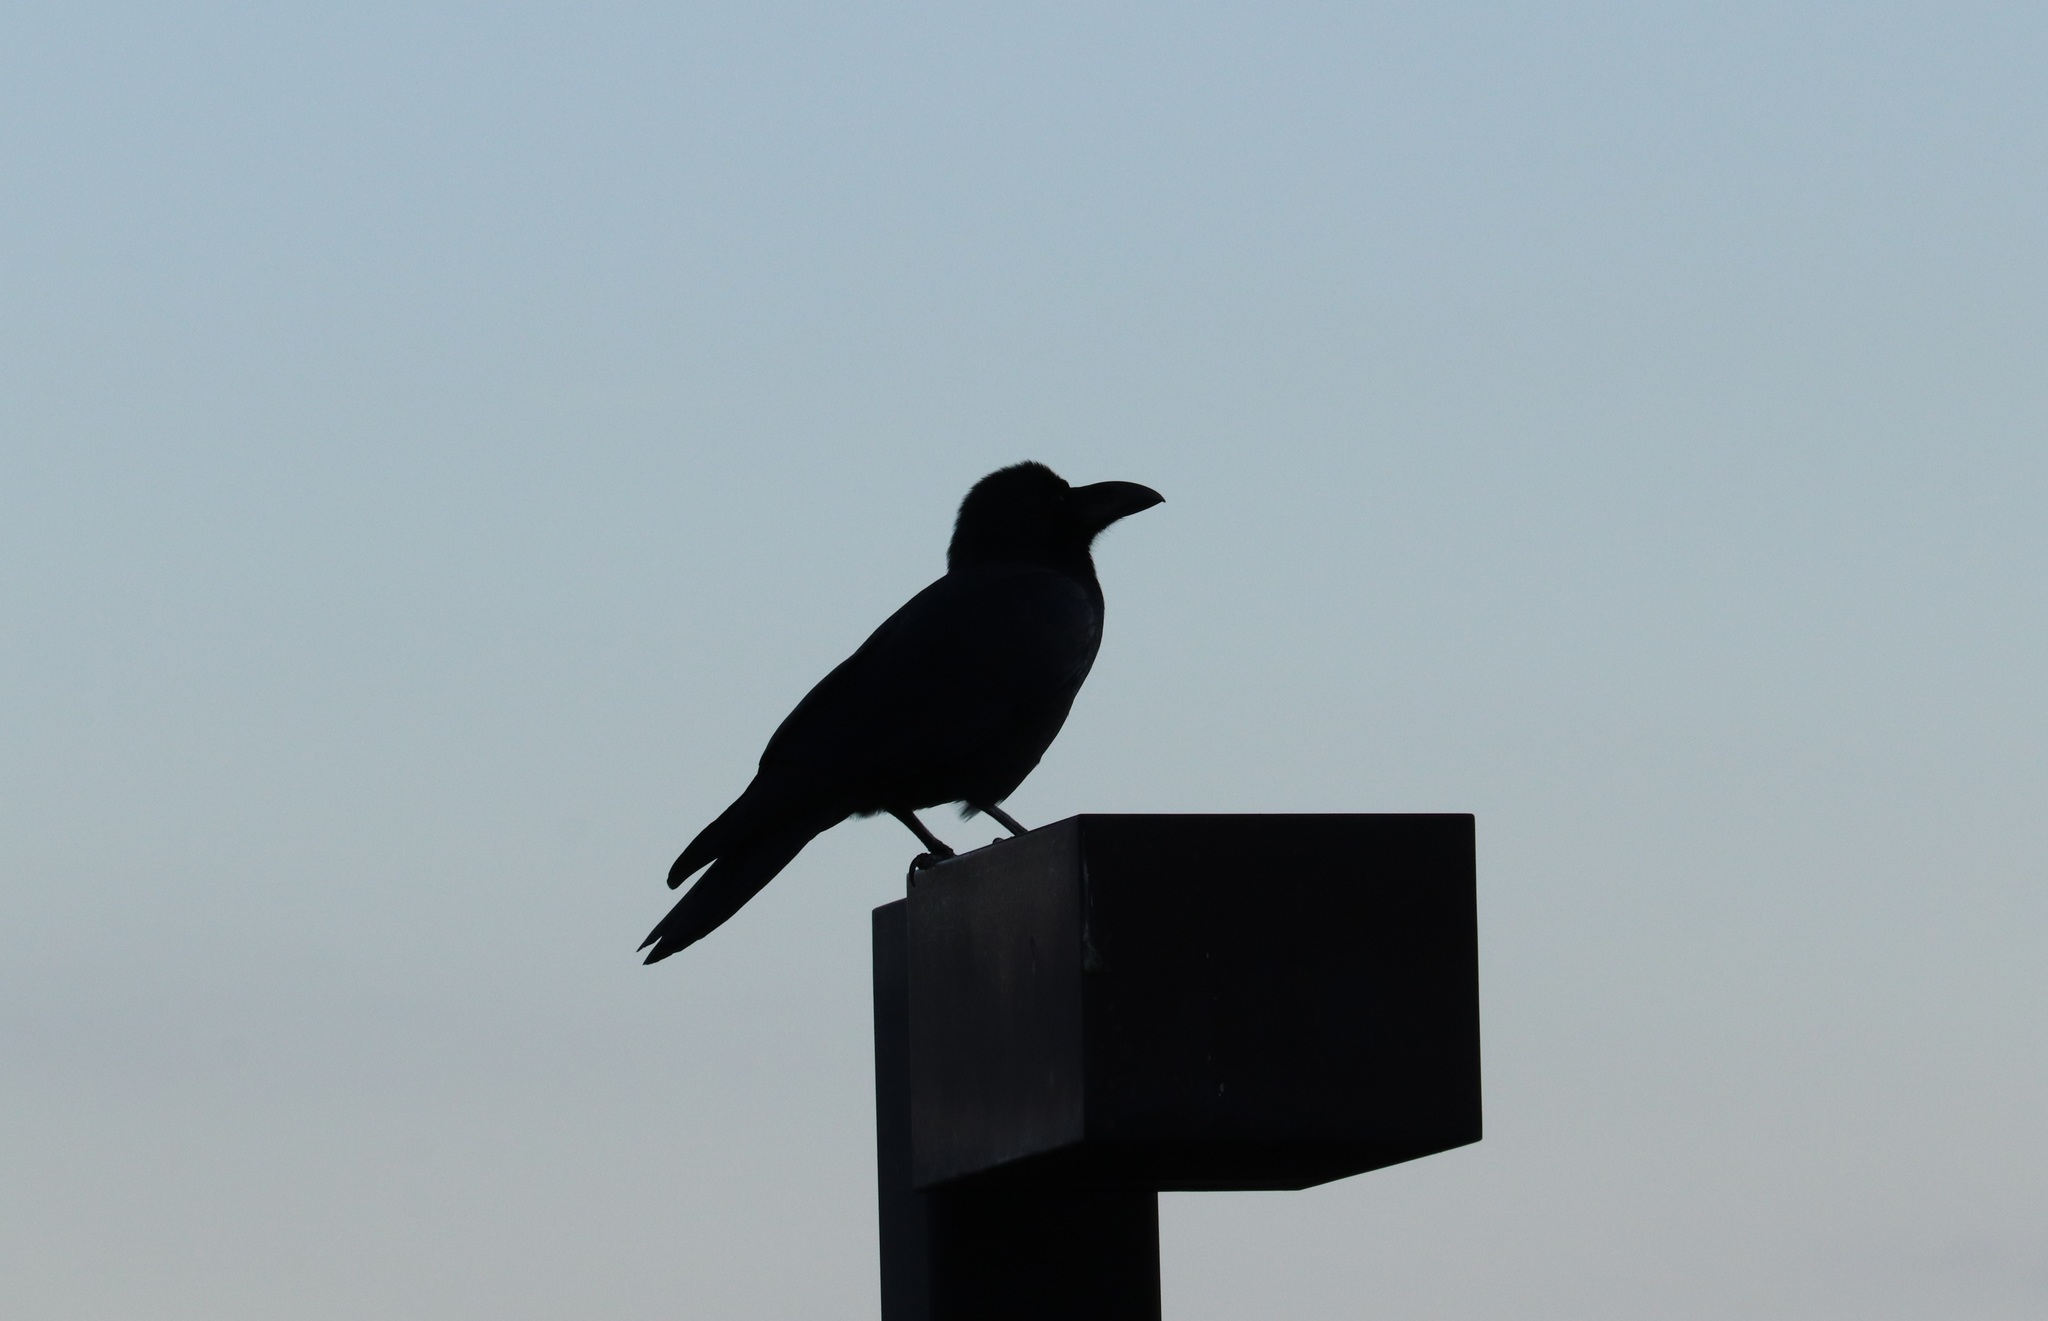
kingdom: Animalia
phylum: Chordata
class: Aves
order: Passeriformes
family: Corvidae
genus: Corvus
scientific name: Corvus macrorhynchos
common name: Large-billed crow
